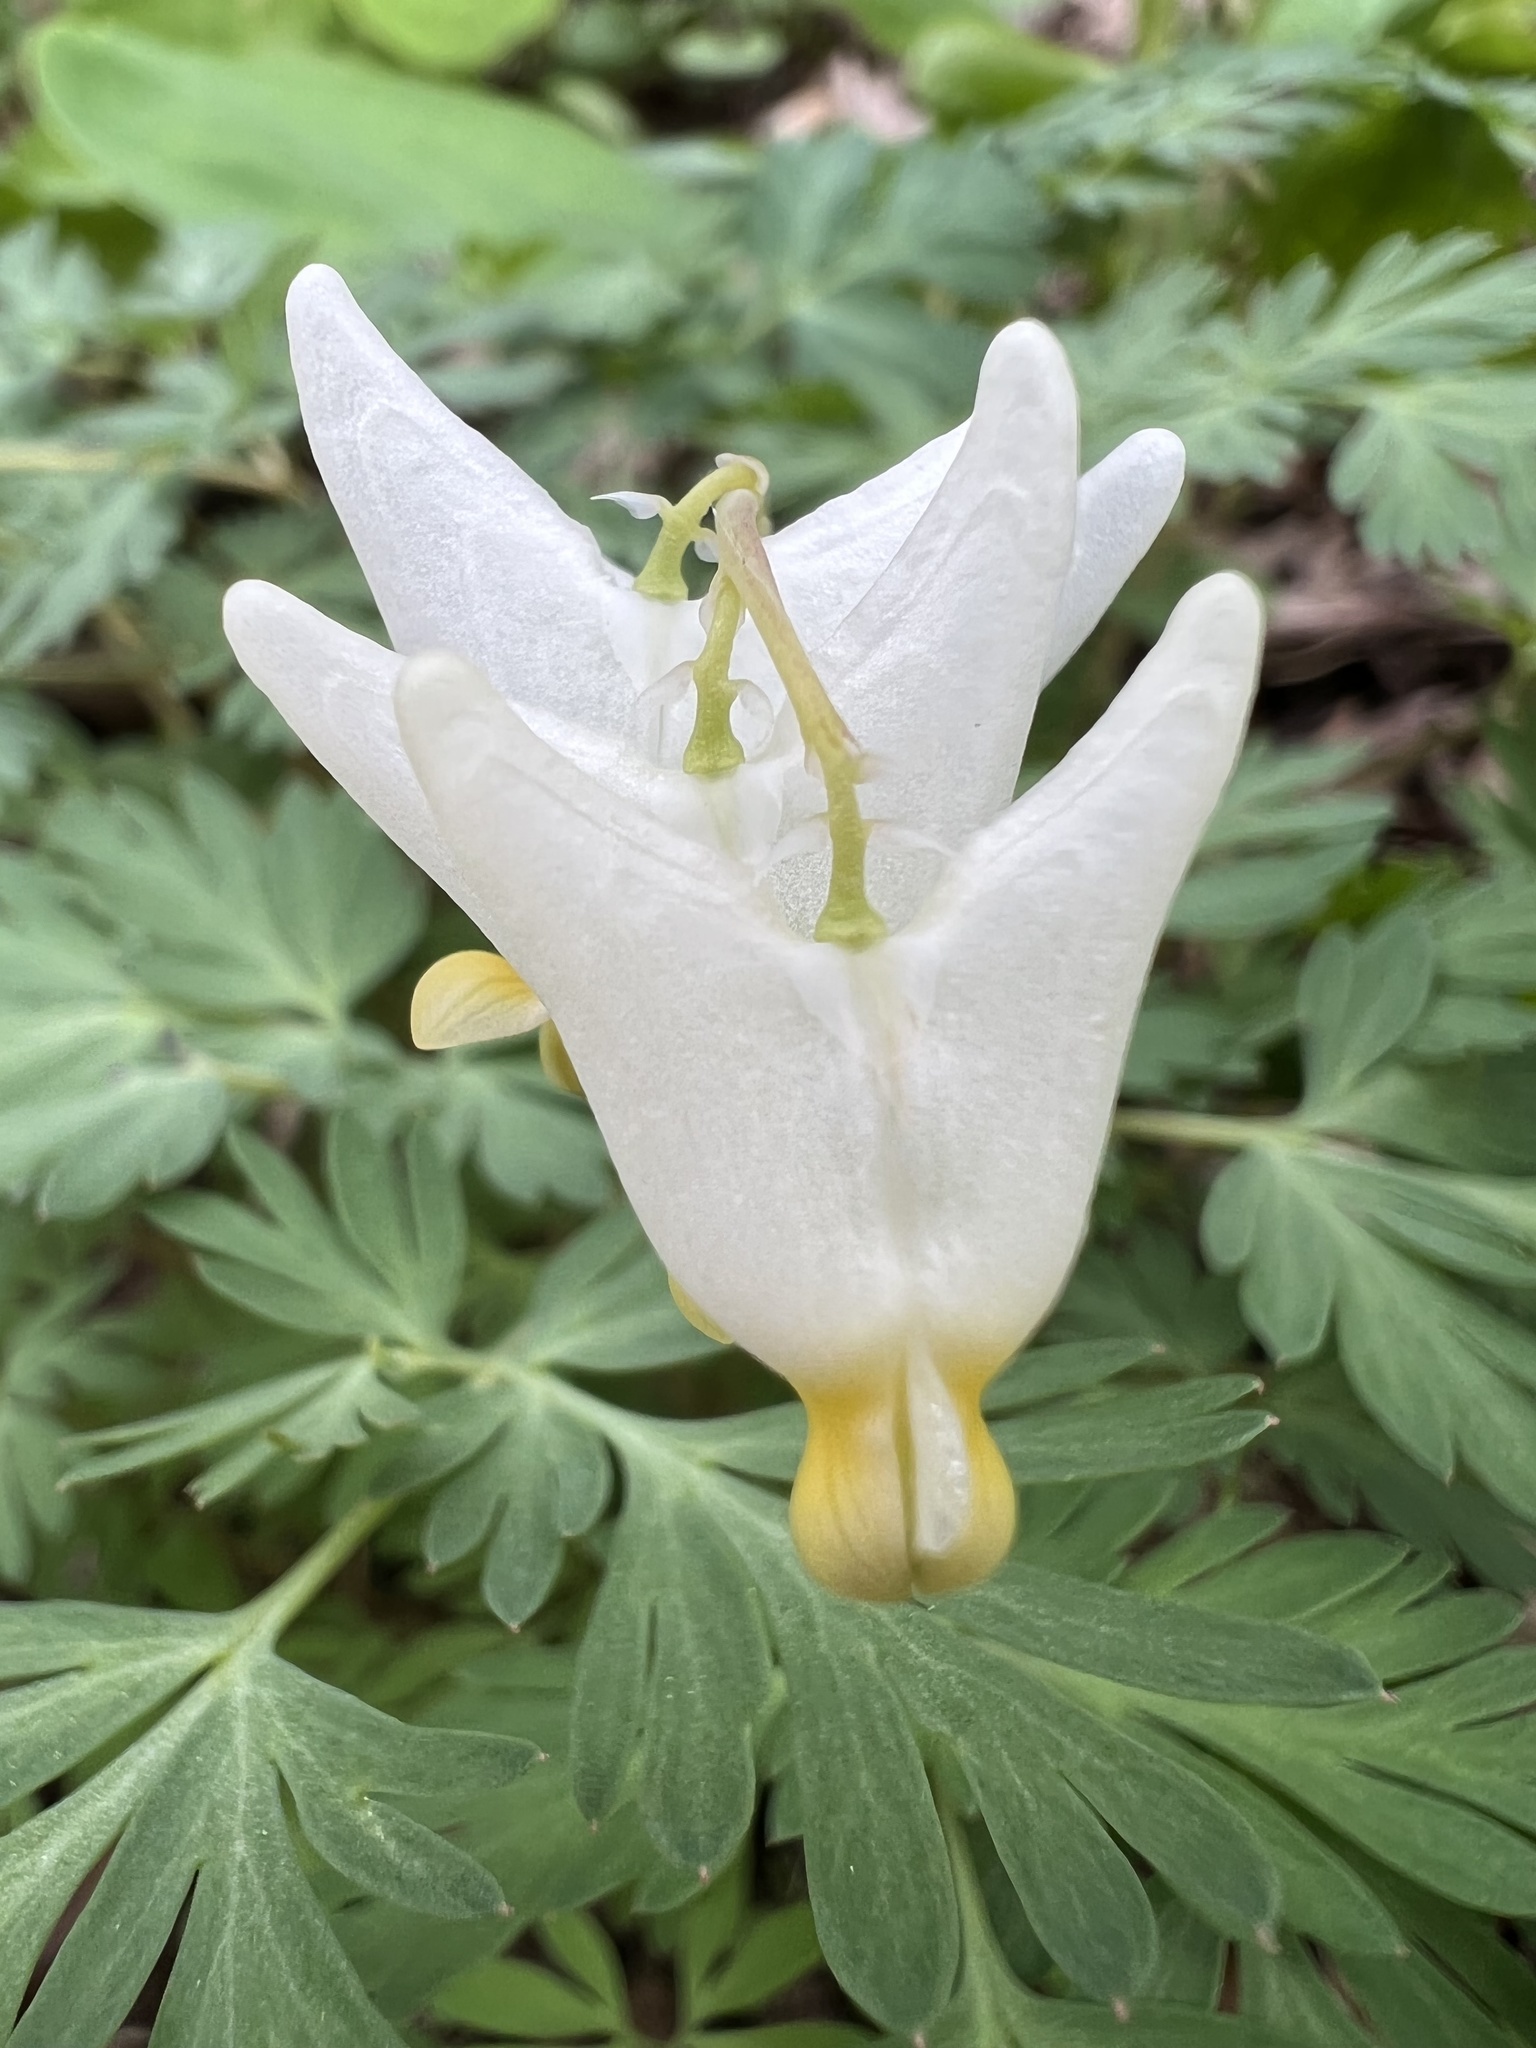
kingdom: Plantae
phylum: Tracheophyta
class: Magnoliopsida
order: Ranunculales
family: Papaveraceae
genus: Dicentra
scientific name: Dicentra cucullaria
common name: Dutchman's breeches
